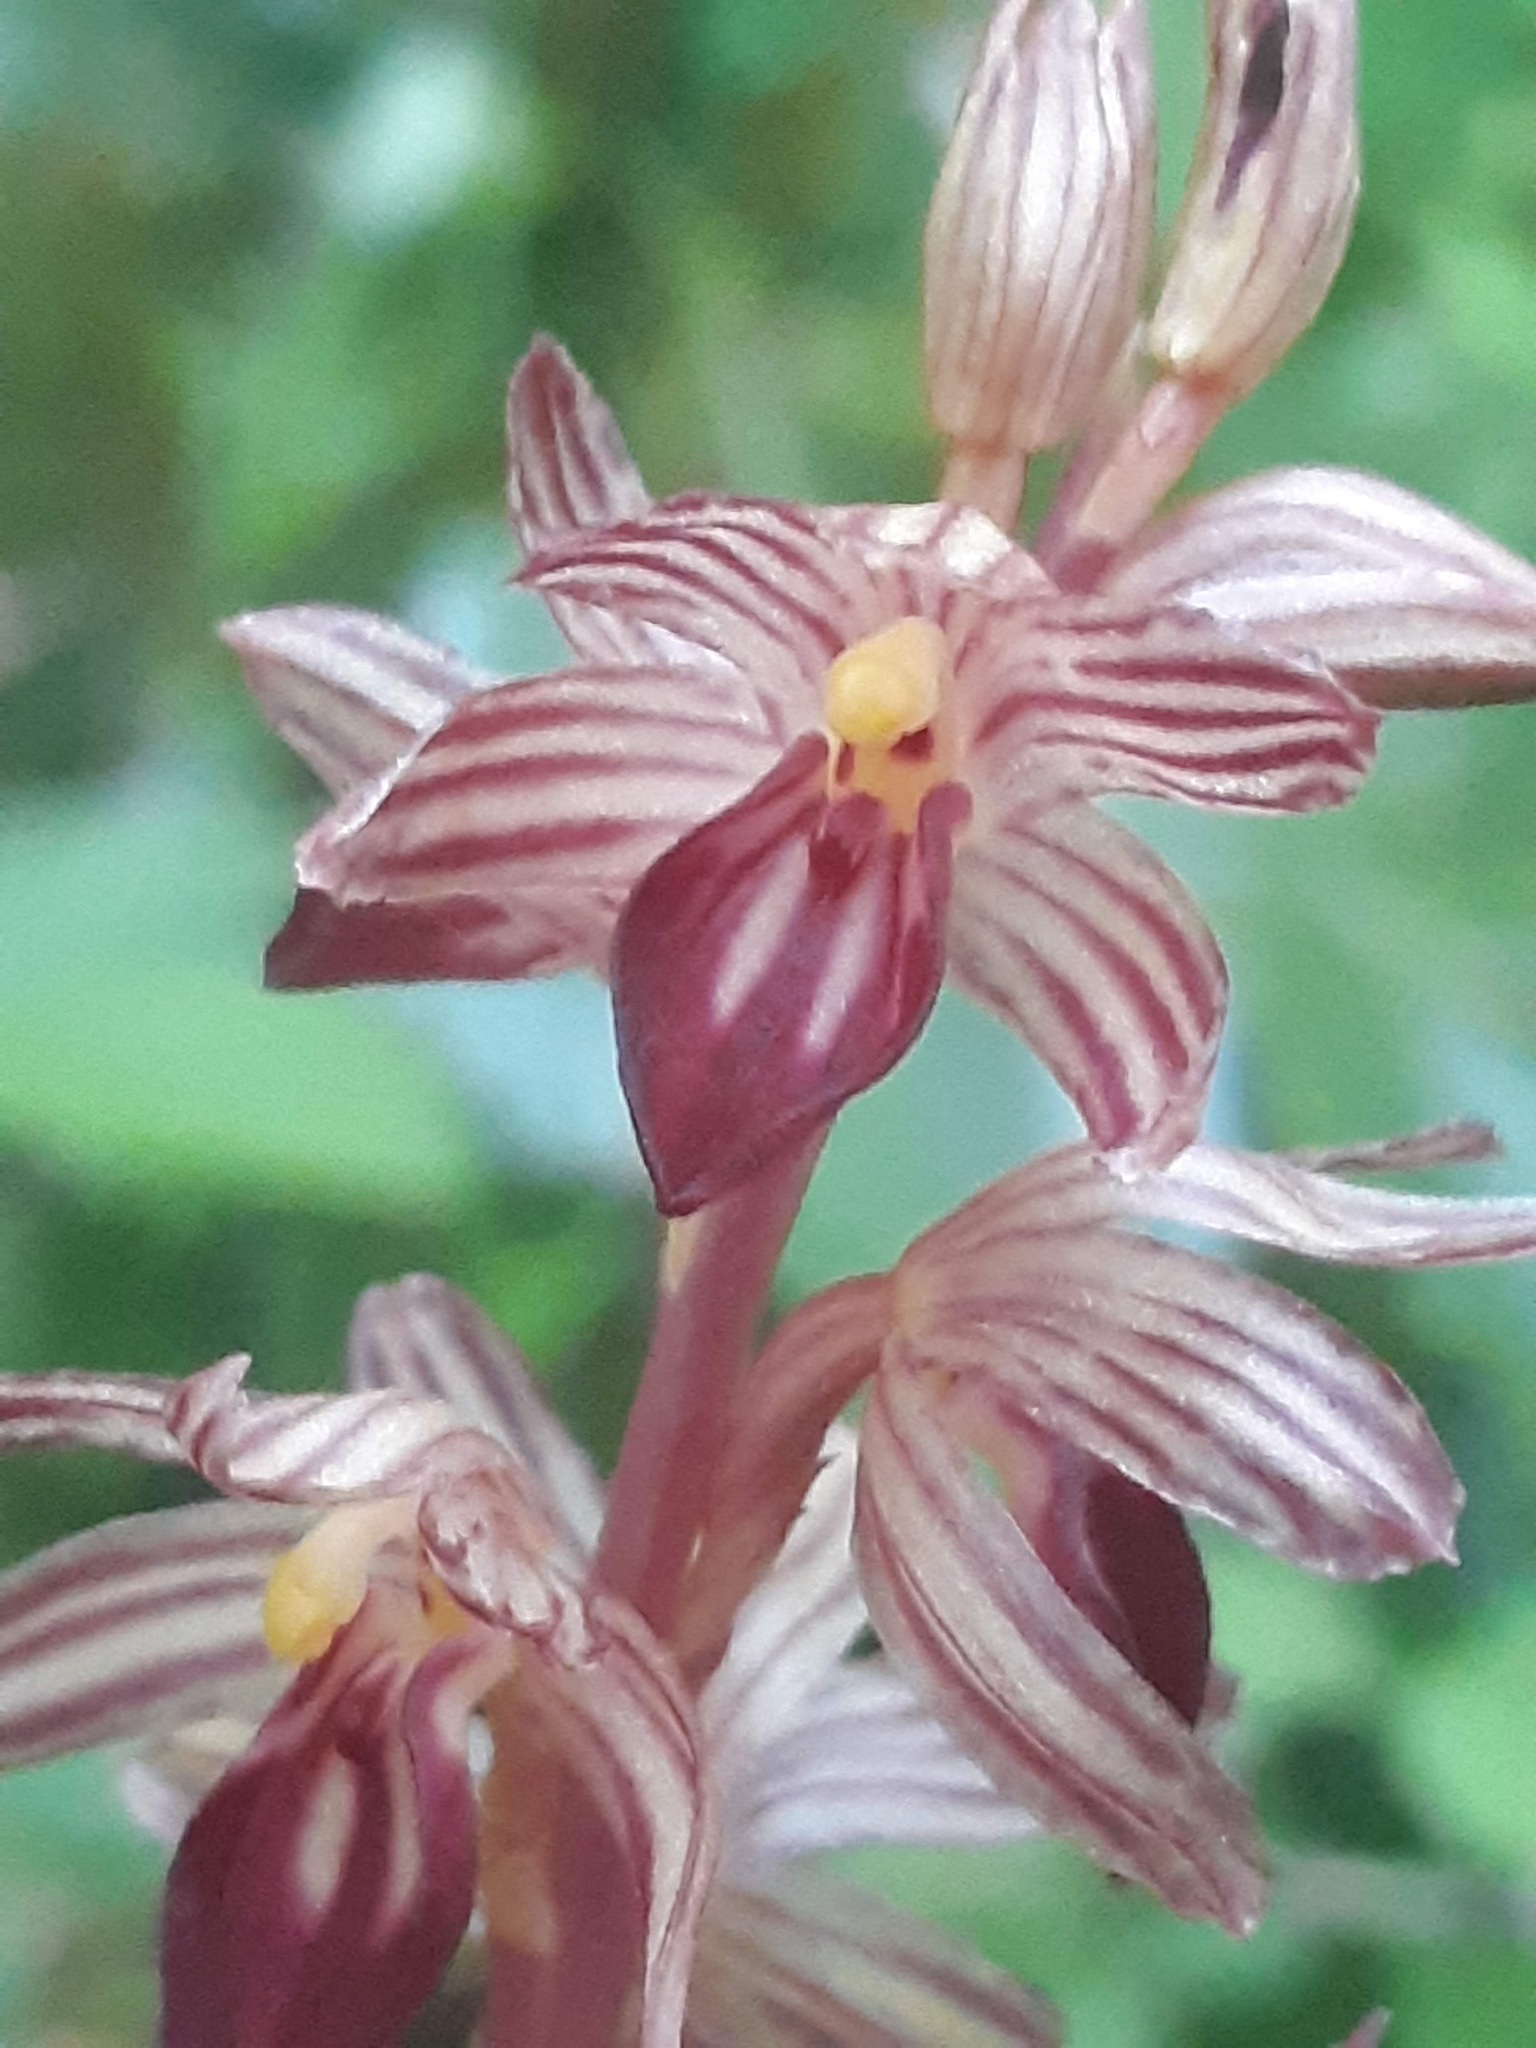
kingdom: Plantae
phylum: Tracheophyta
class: Liliopsida
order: Asparagales
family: Orchidaceae
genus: Corallorhiza
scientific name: Corallorhiza striata
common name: Hooded coralroot
